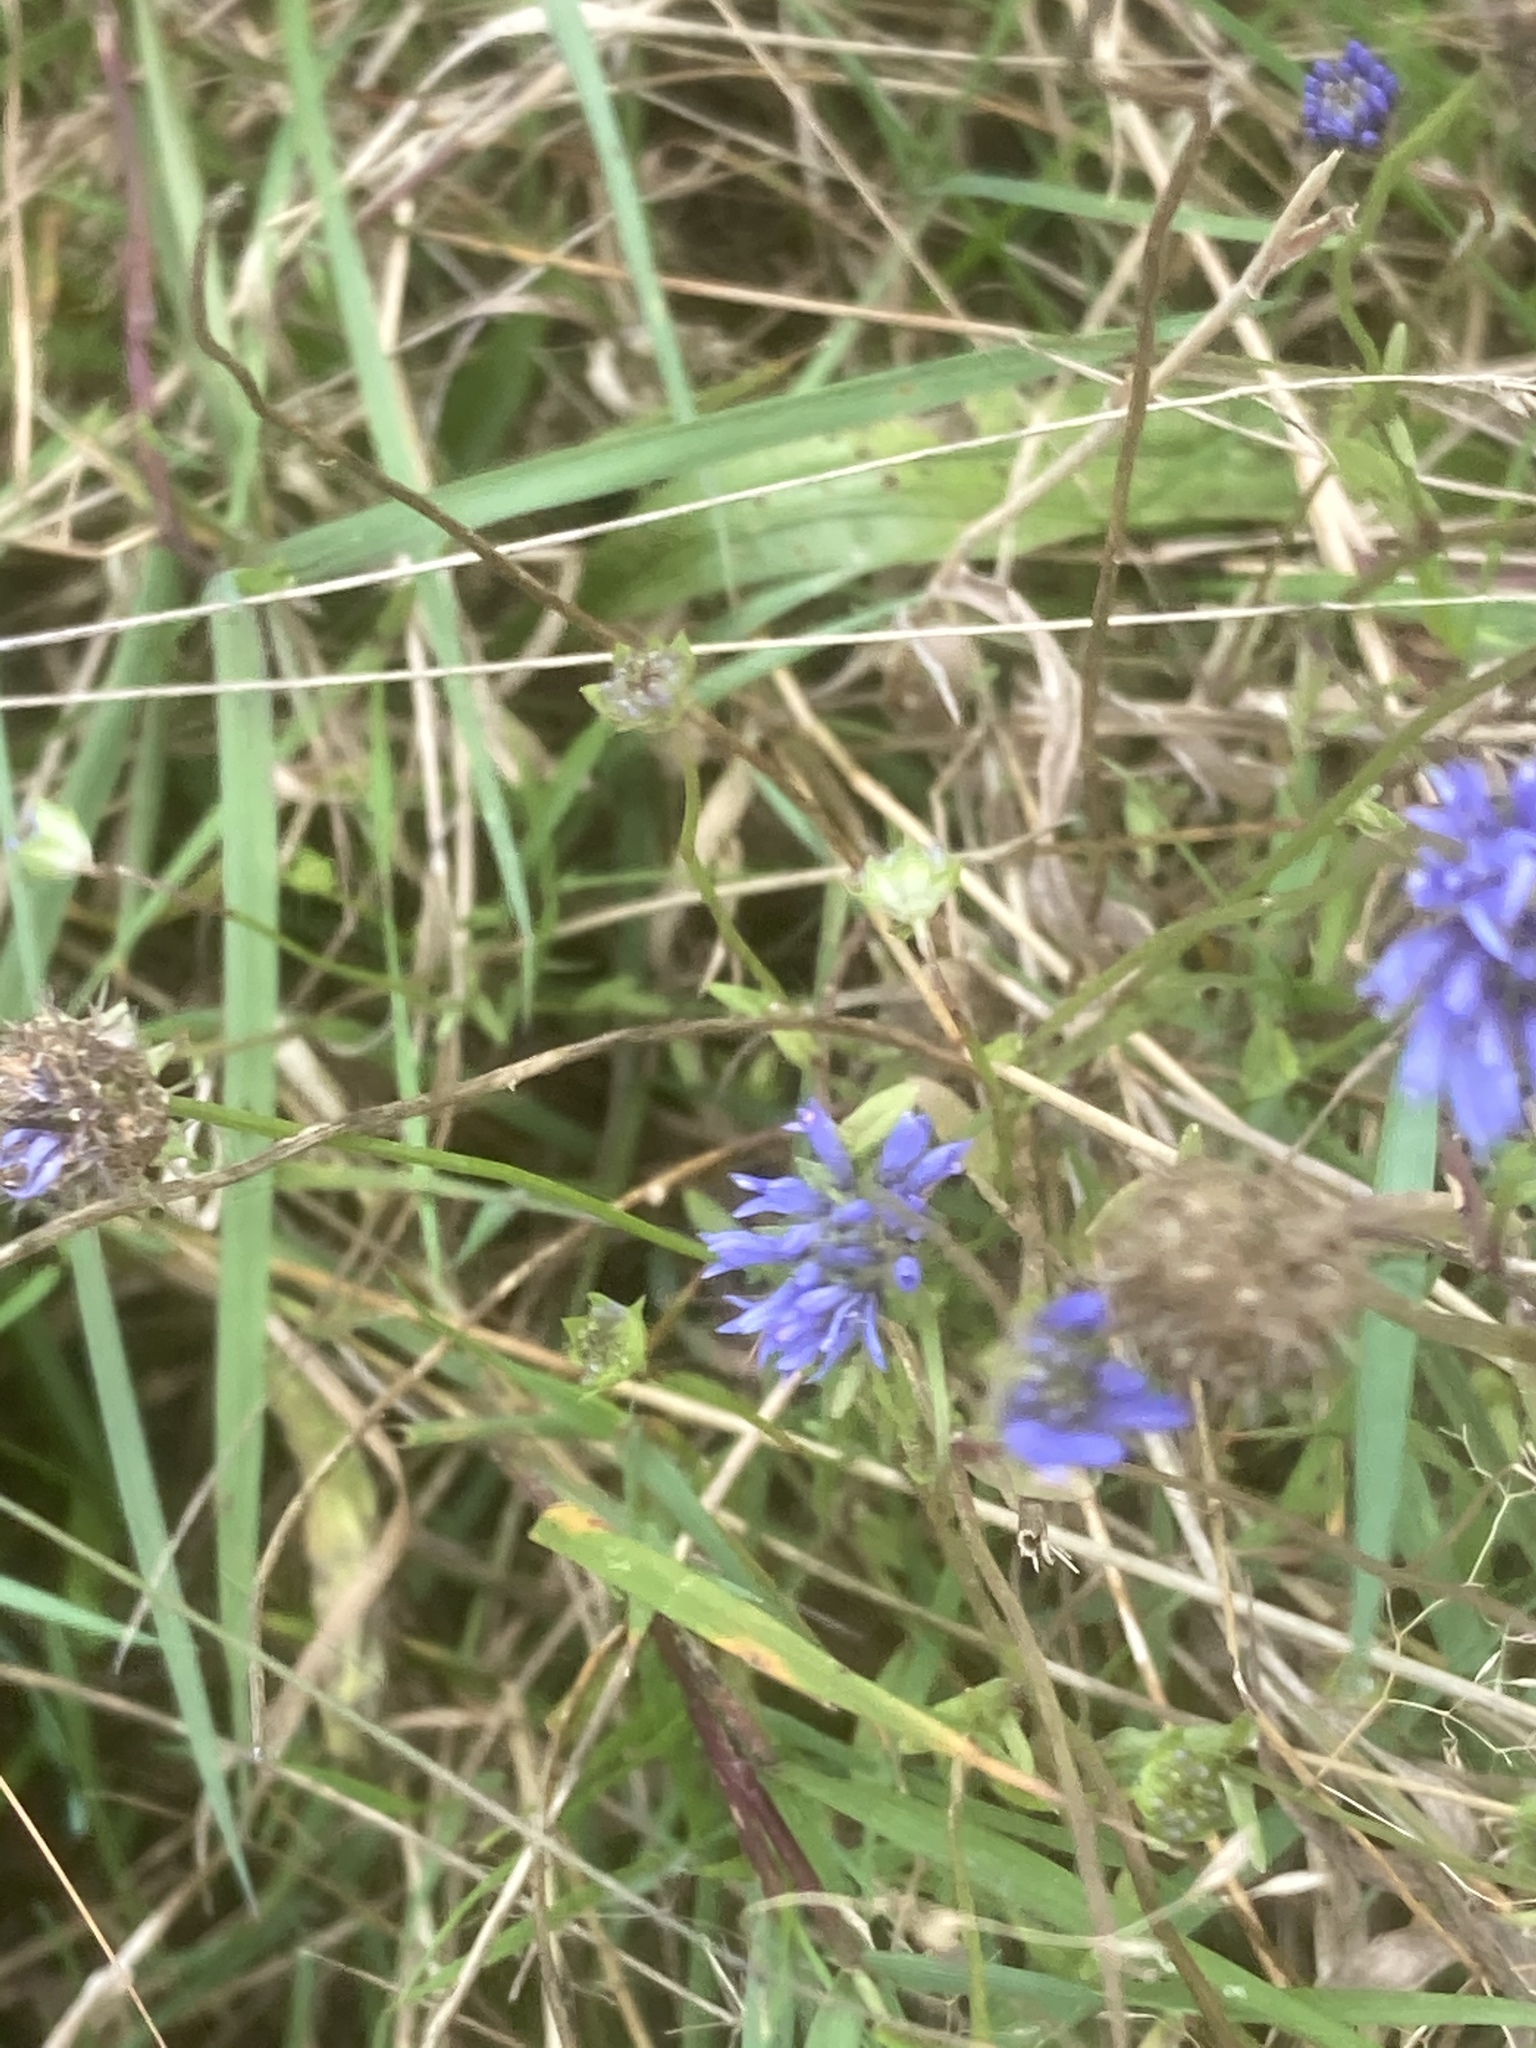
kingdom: Plantae
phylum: Tracheophyta
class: Magnoliopsida
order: Asterales
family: Campanulaceae
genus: Jasione
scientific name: Jasione montana
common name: Sheep's-bit
